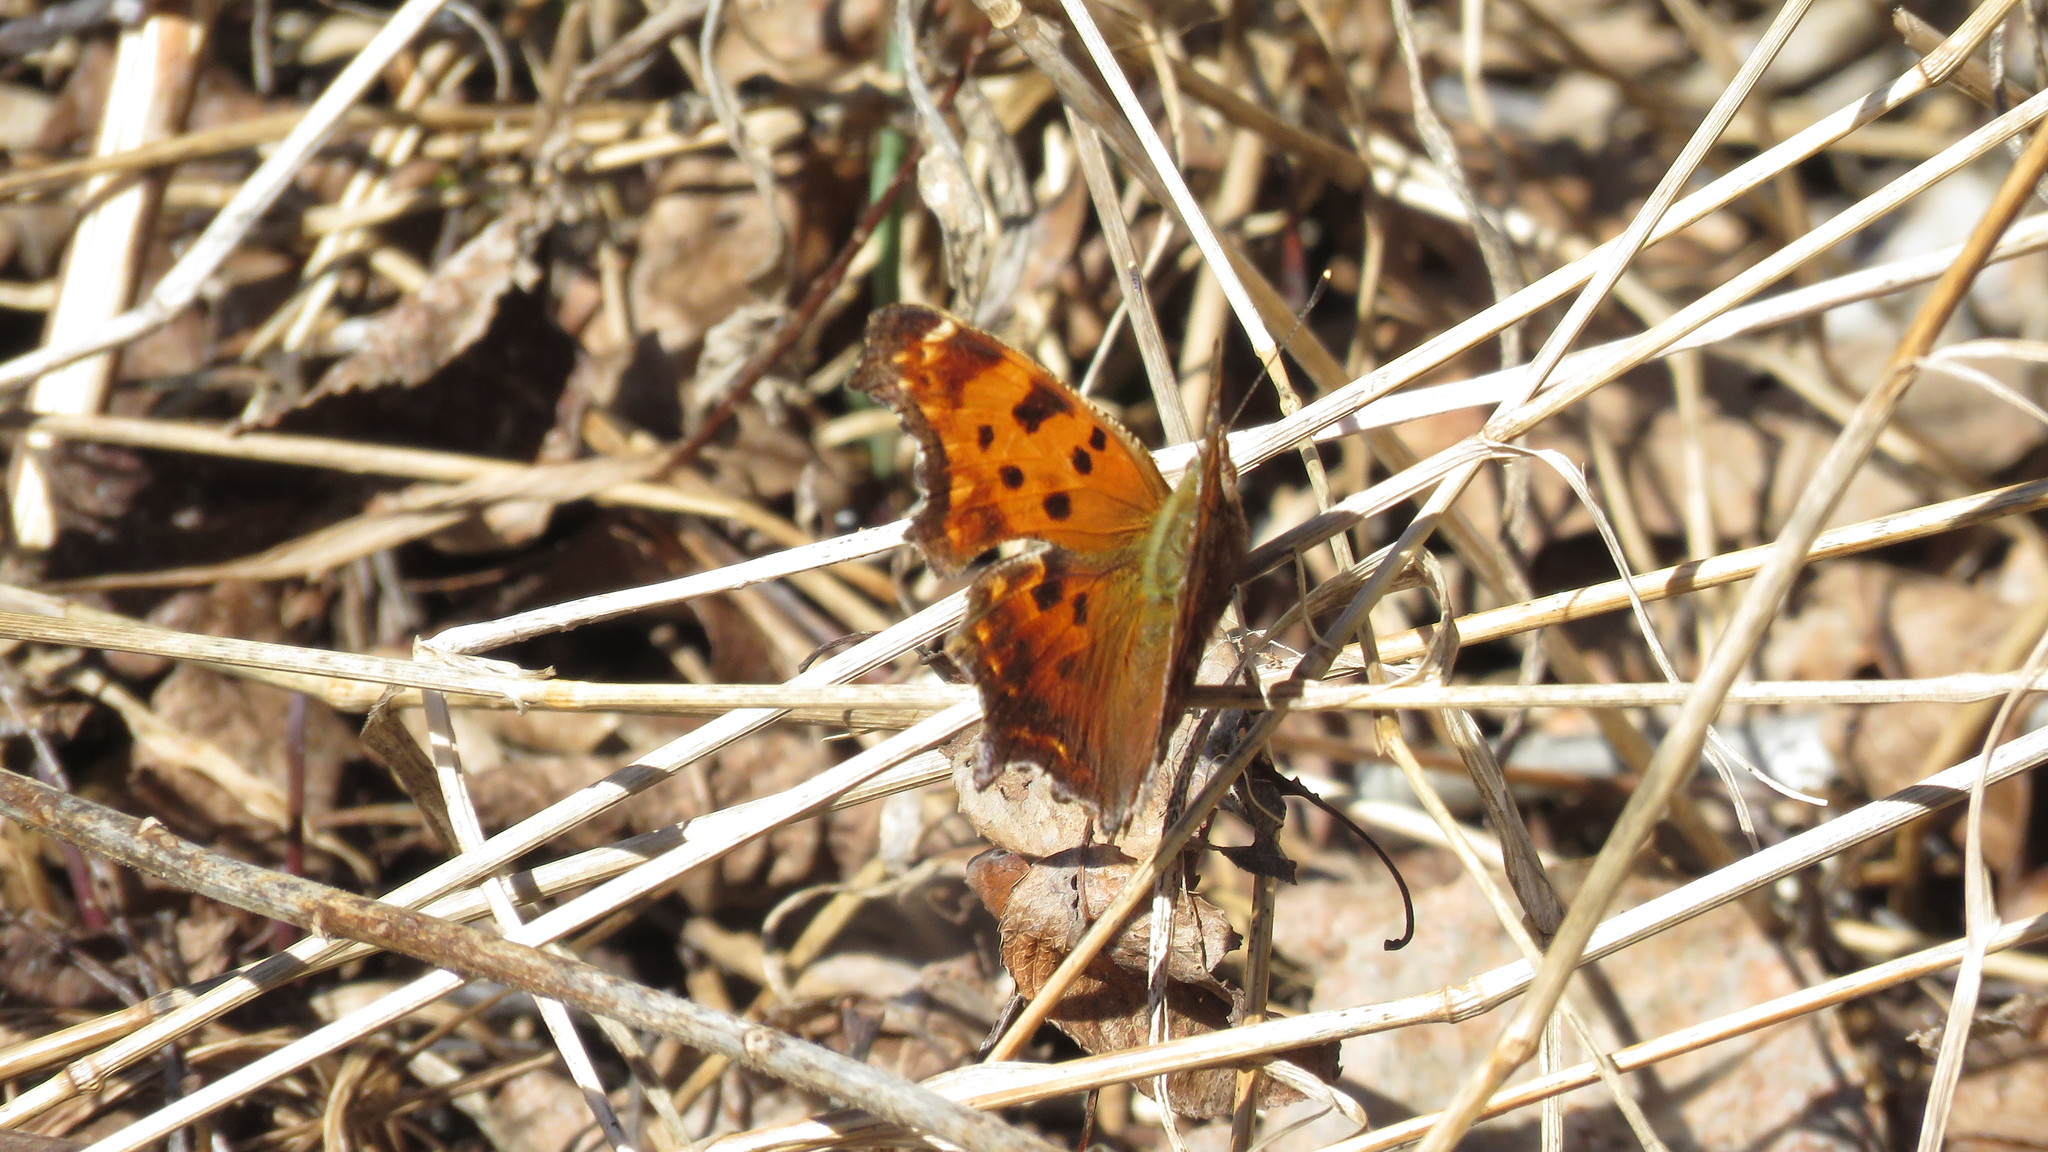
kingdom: Animalia
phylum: Arthropoda
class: Insecta
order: Lepidoptera
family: Nymphalidae
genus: Polygonia
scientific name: Polygonia comma
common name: Eastern comma
